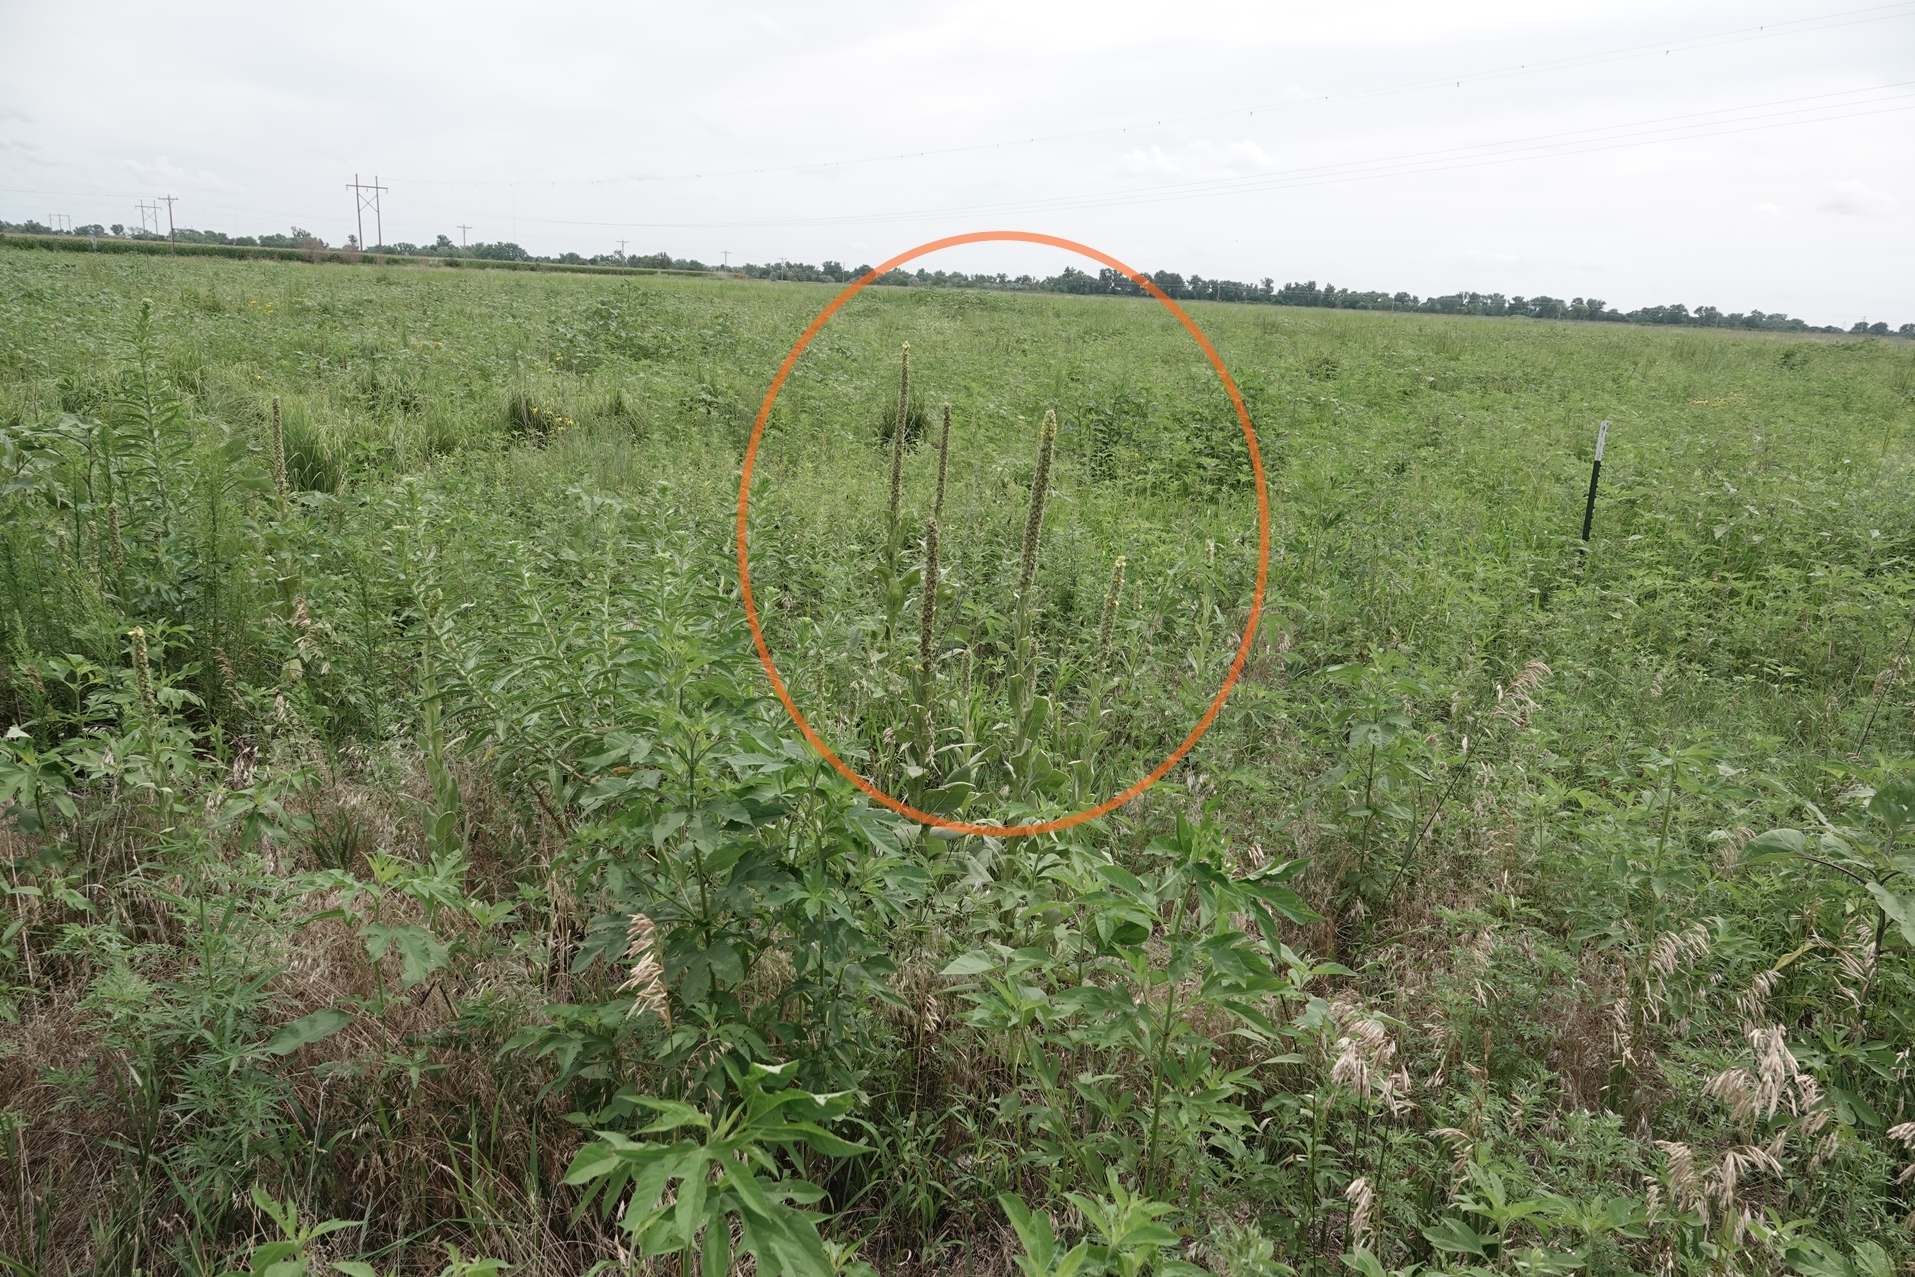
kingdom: Plantae
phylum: Tracheophyta
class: Magnoliopsida
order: Lamiales
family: Scrophulariaceae
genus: Verbascum
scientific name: Verbascum thapsus
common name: Common mullein
